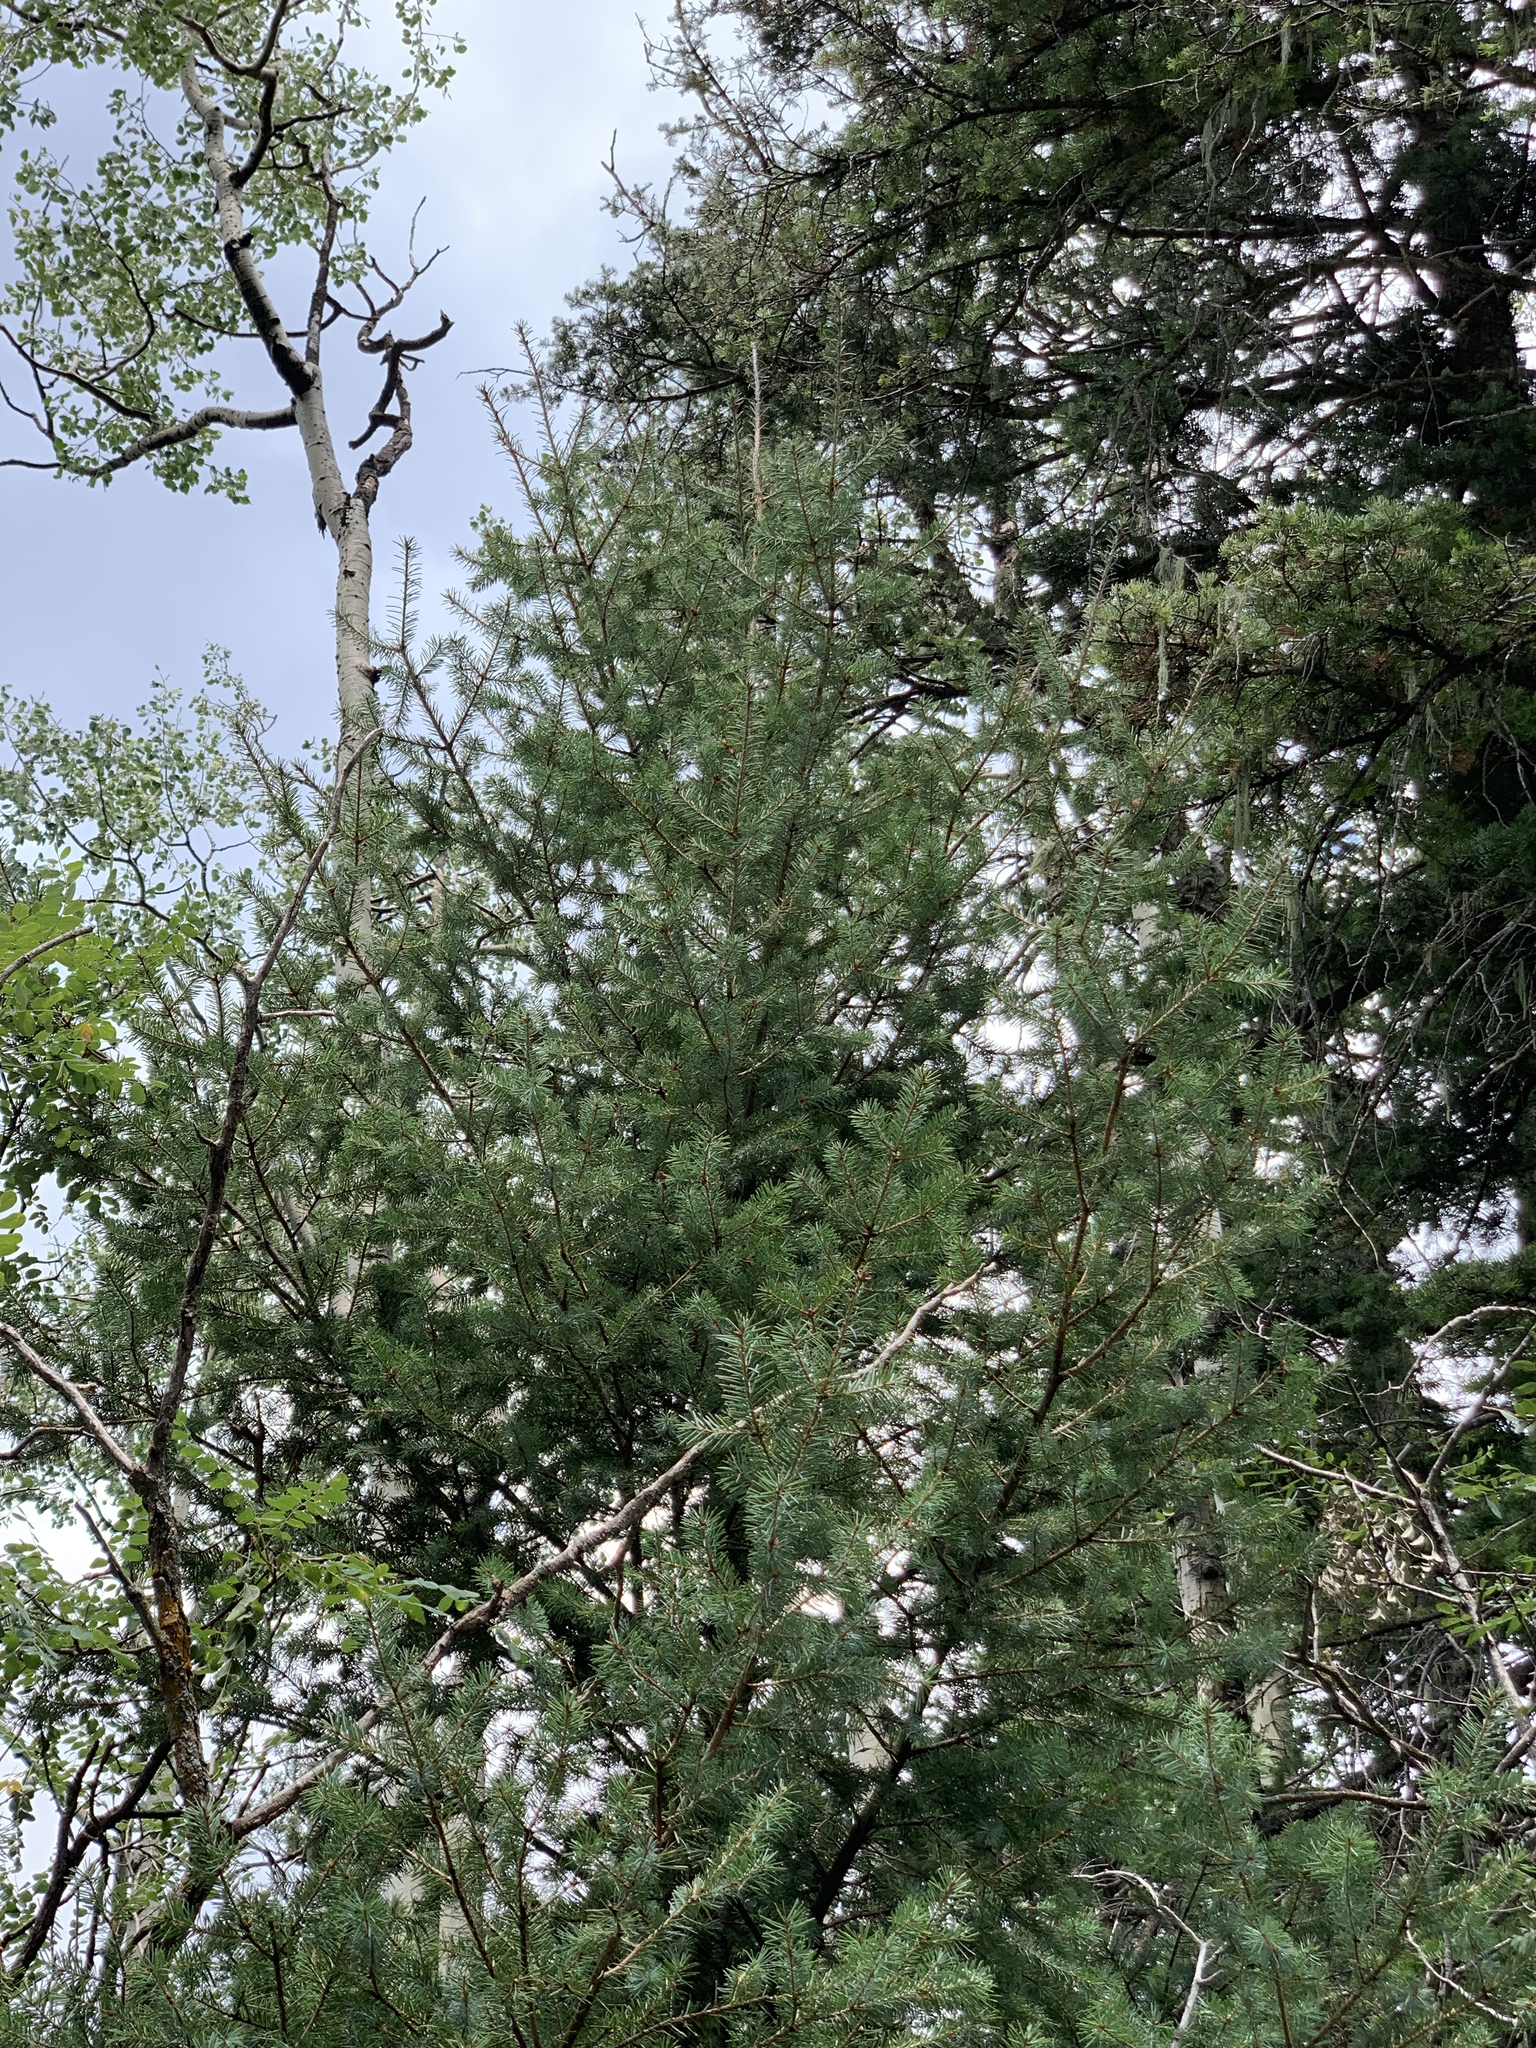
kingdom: Plantae
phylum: Tracheophyta
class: Pinopsida
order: Pinales
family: Pinaceae
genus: Pseudotsuga
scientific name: Pseudotsuga menziesii
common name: Douglas fir
